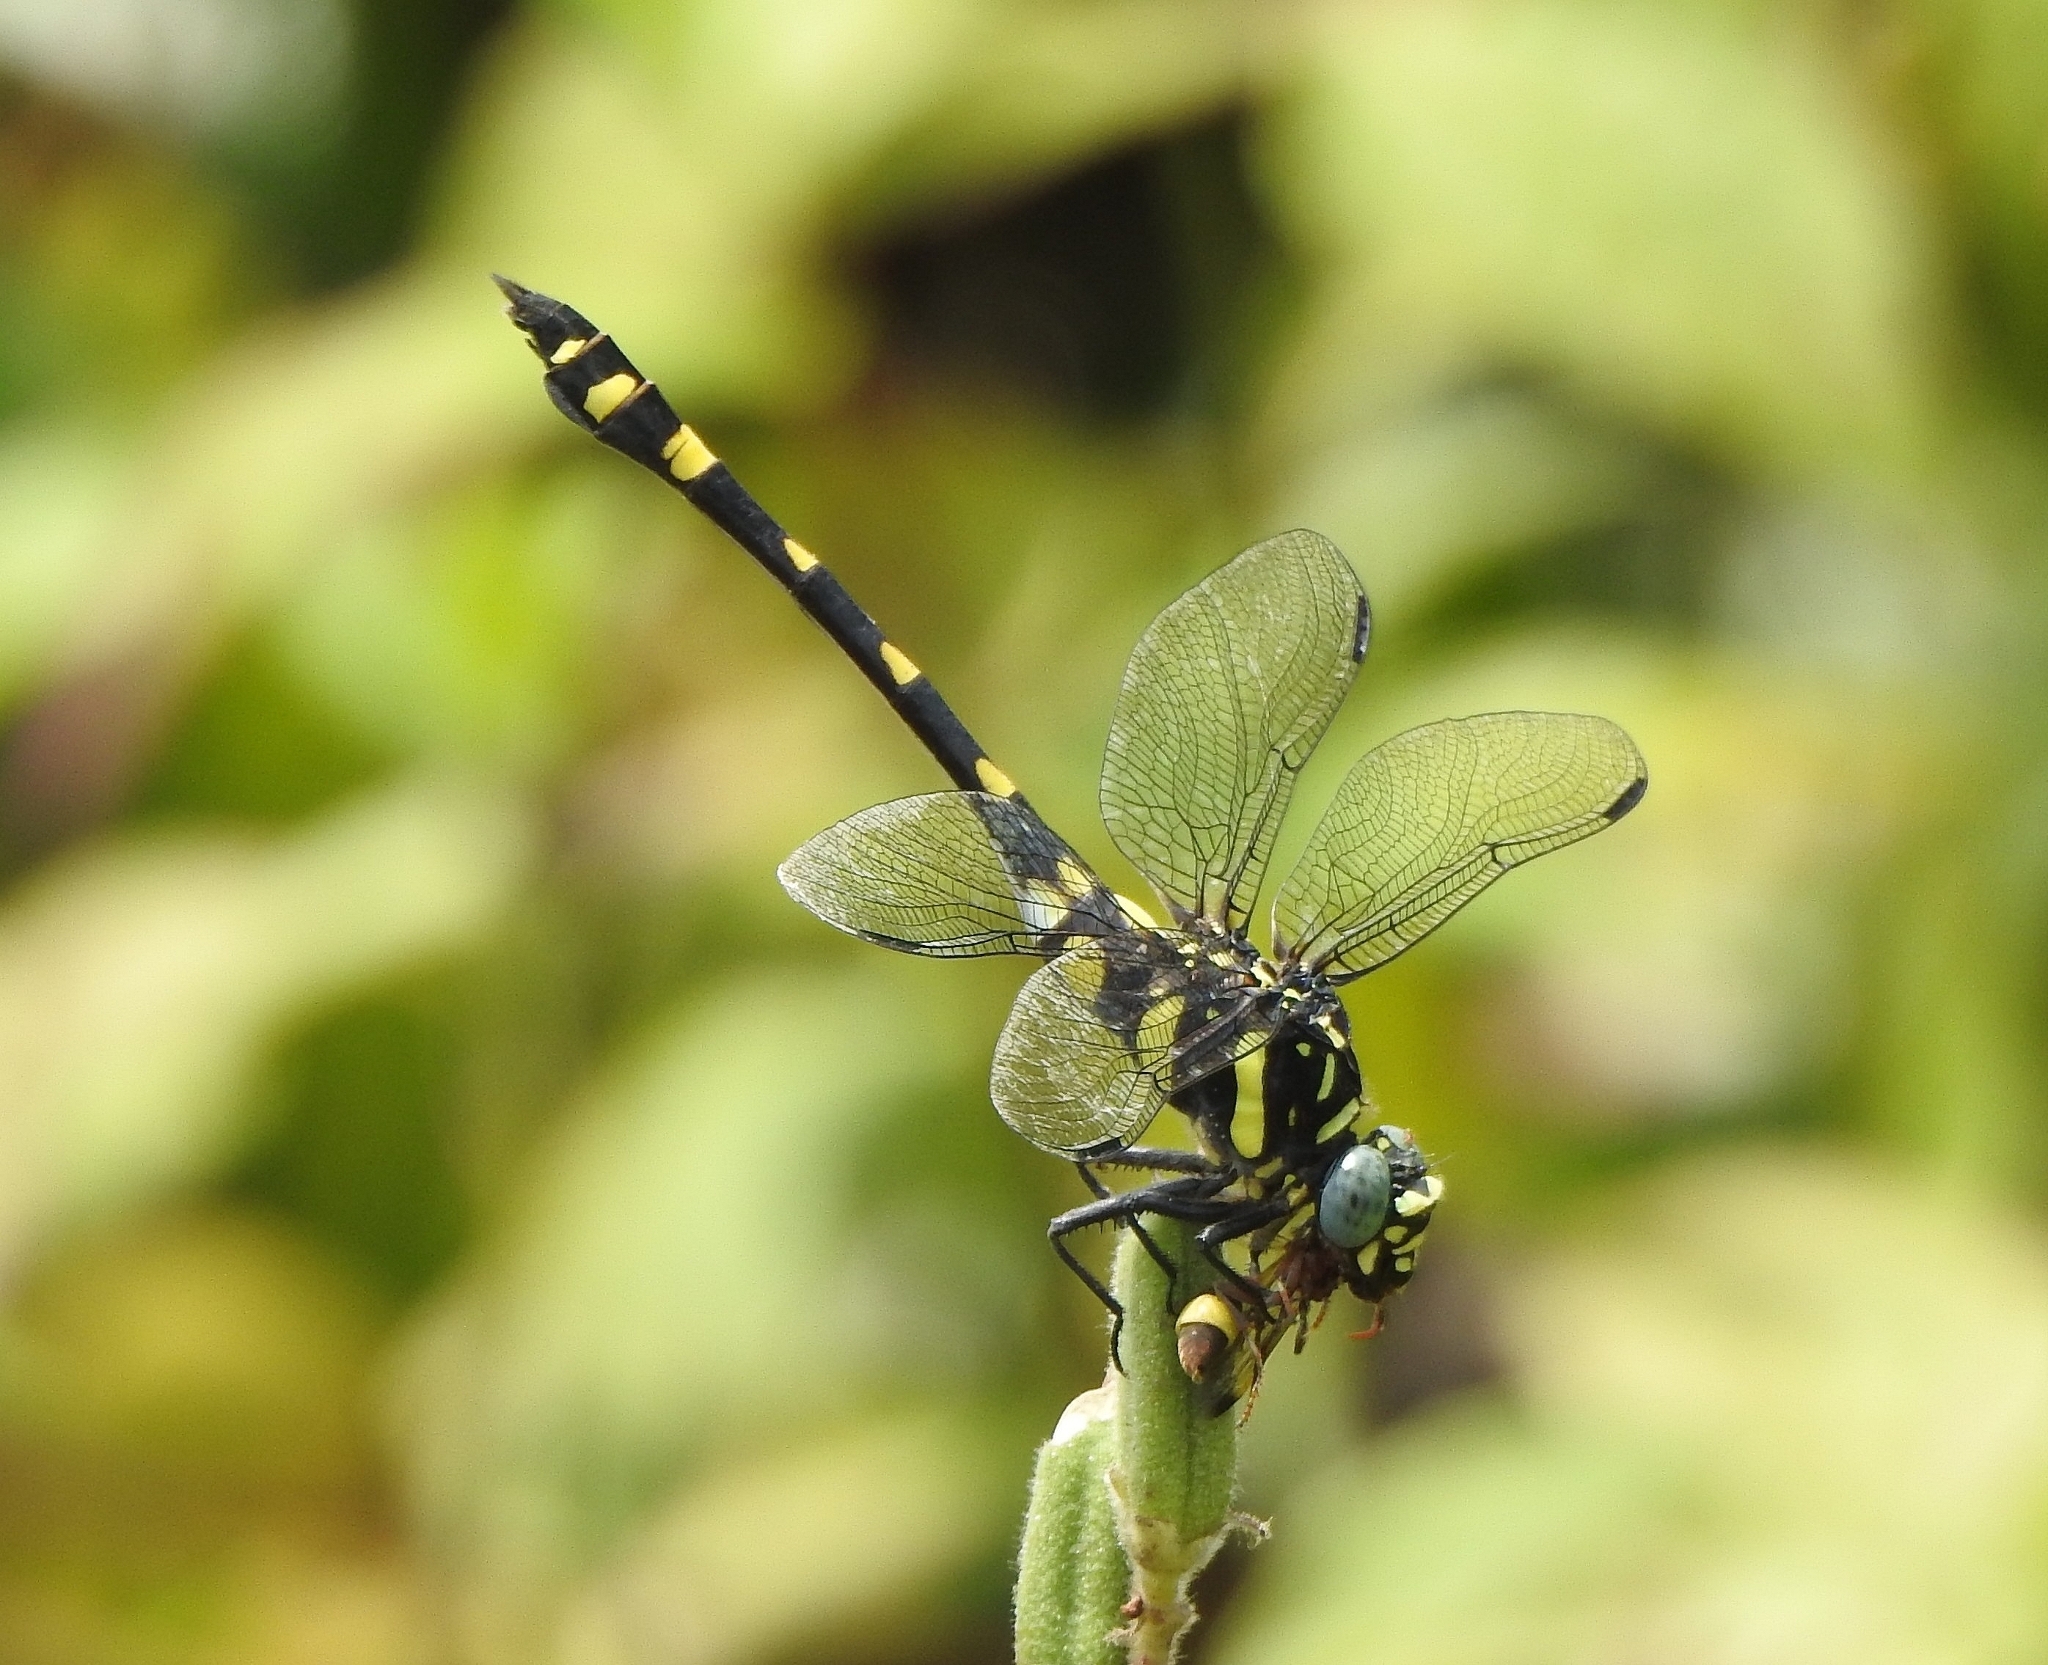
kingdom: Animalia
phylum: Arthropoda
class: Insecta
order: Odonata
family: Gomphidae
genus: Ictinogomphus
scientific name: Ictinogomphus rapax
